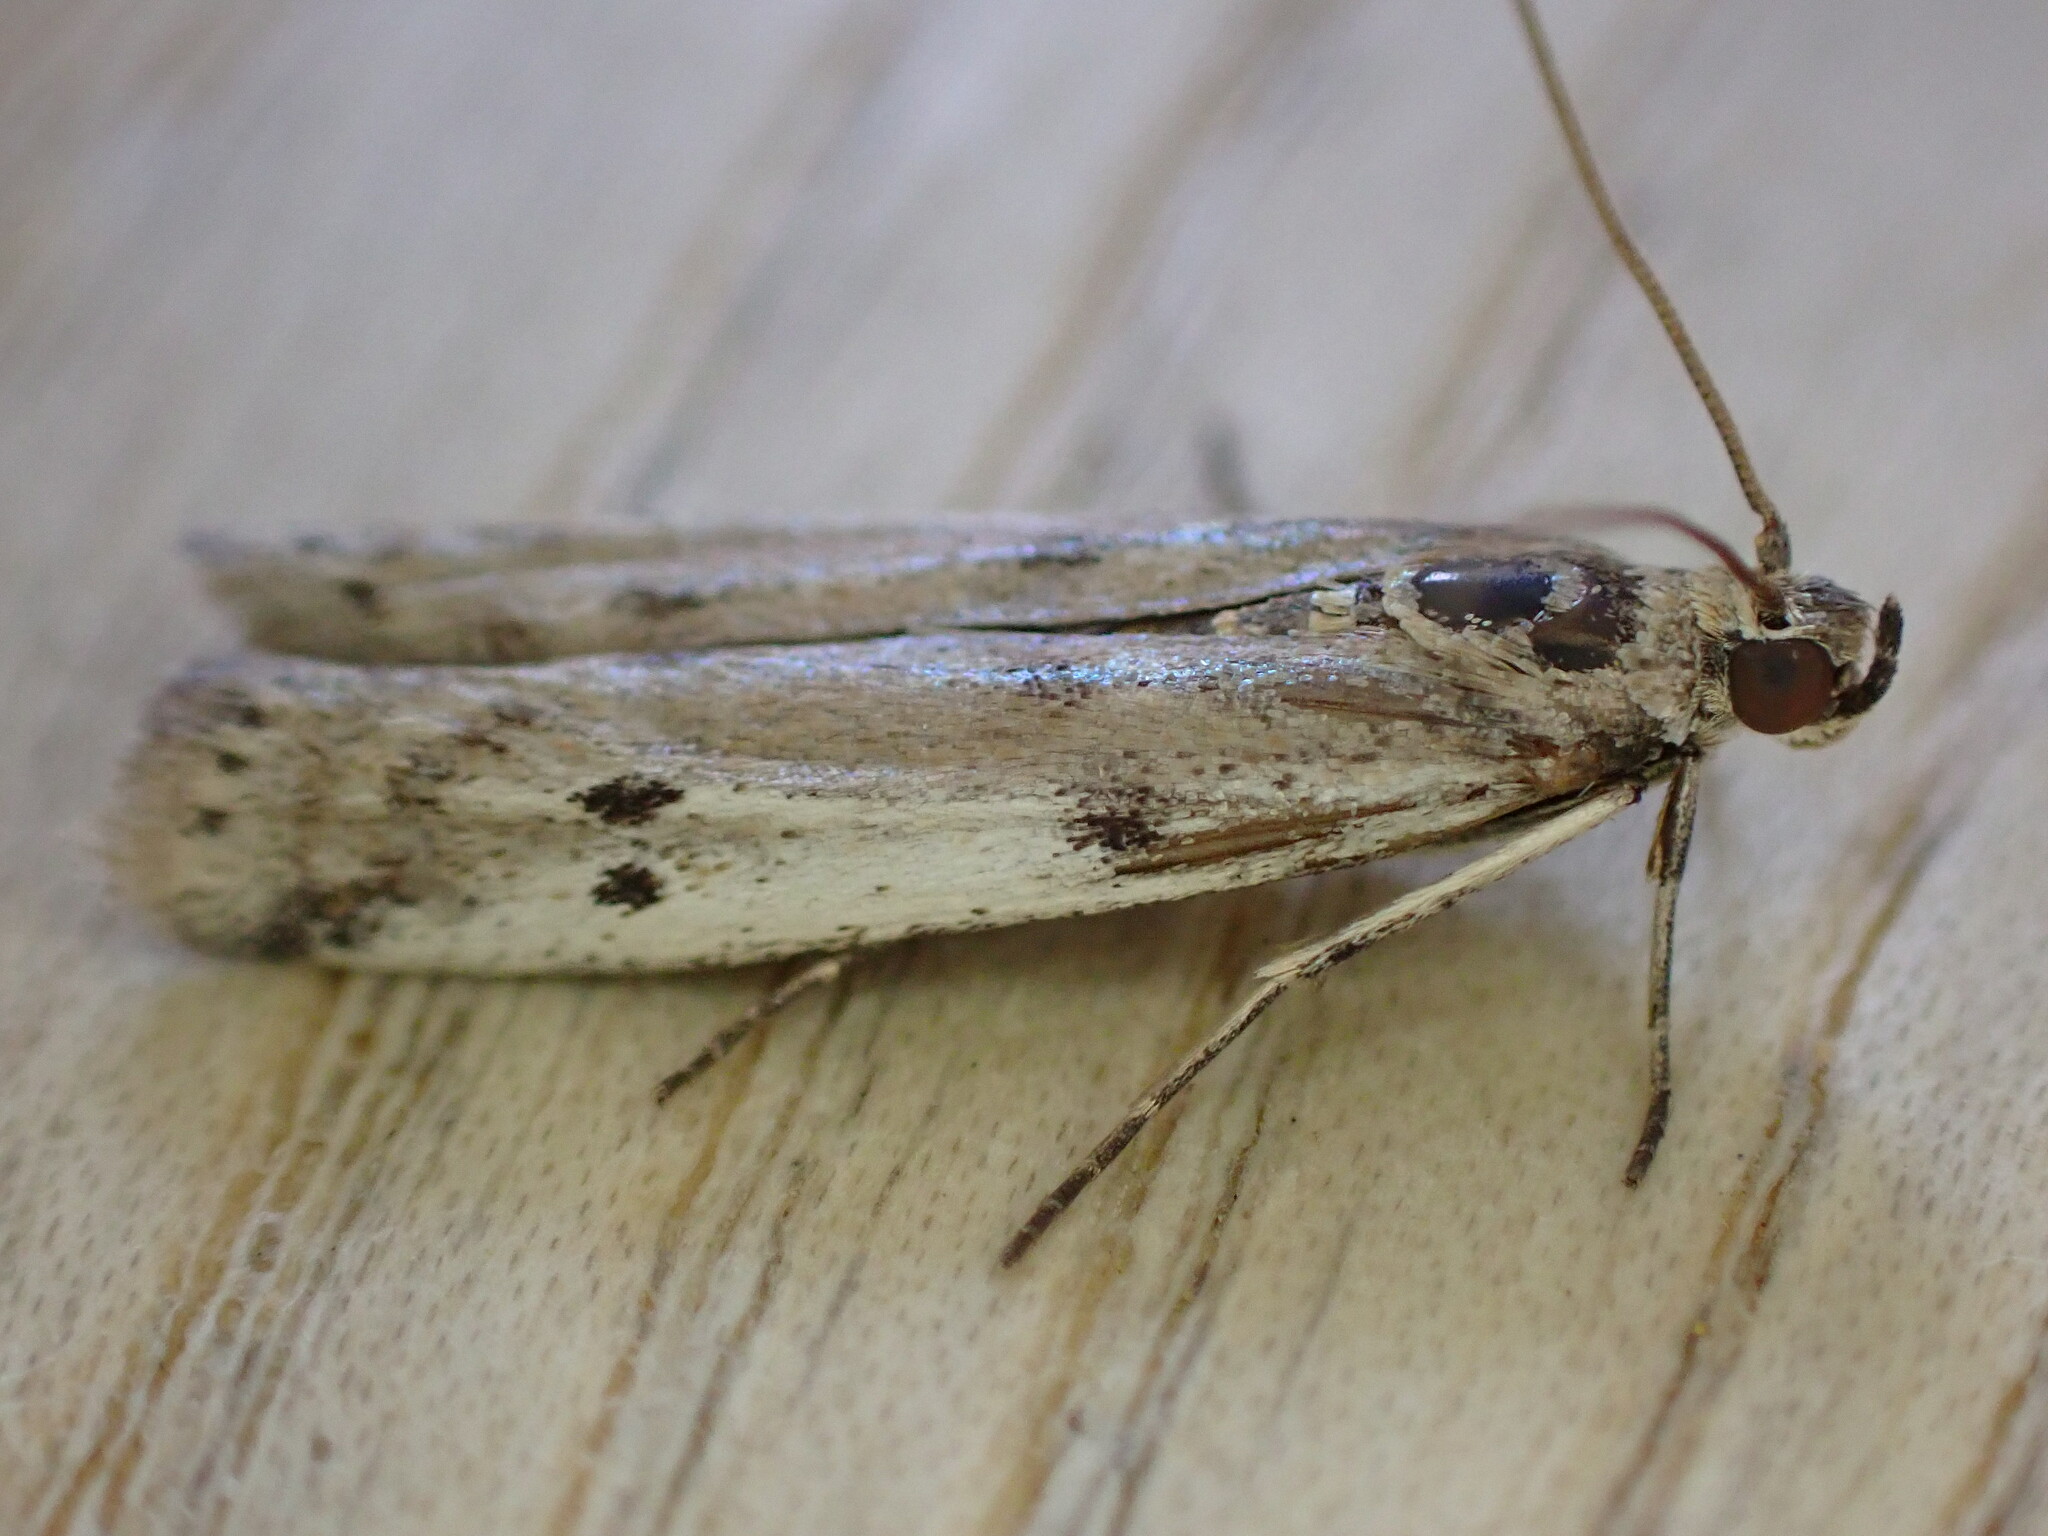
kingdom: Animalia
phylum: Arthropoda
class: Insecta
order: Lepidoptera
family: Pyralidae
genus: Phycitodes
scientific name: Phycitodes binaevella
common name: Ermine knot-horn
